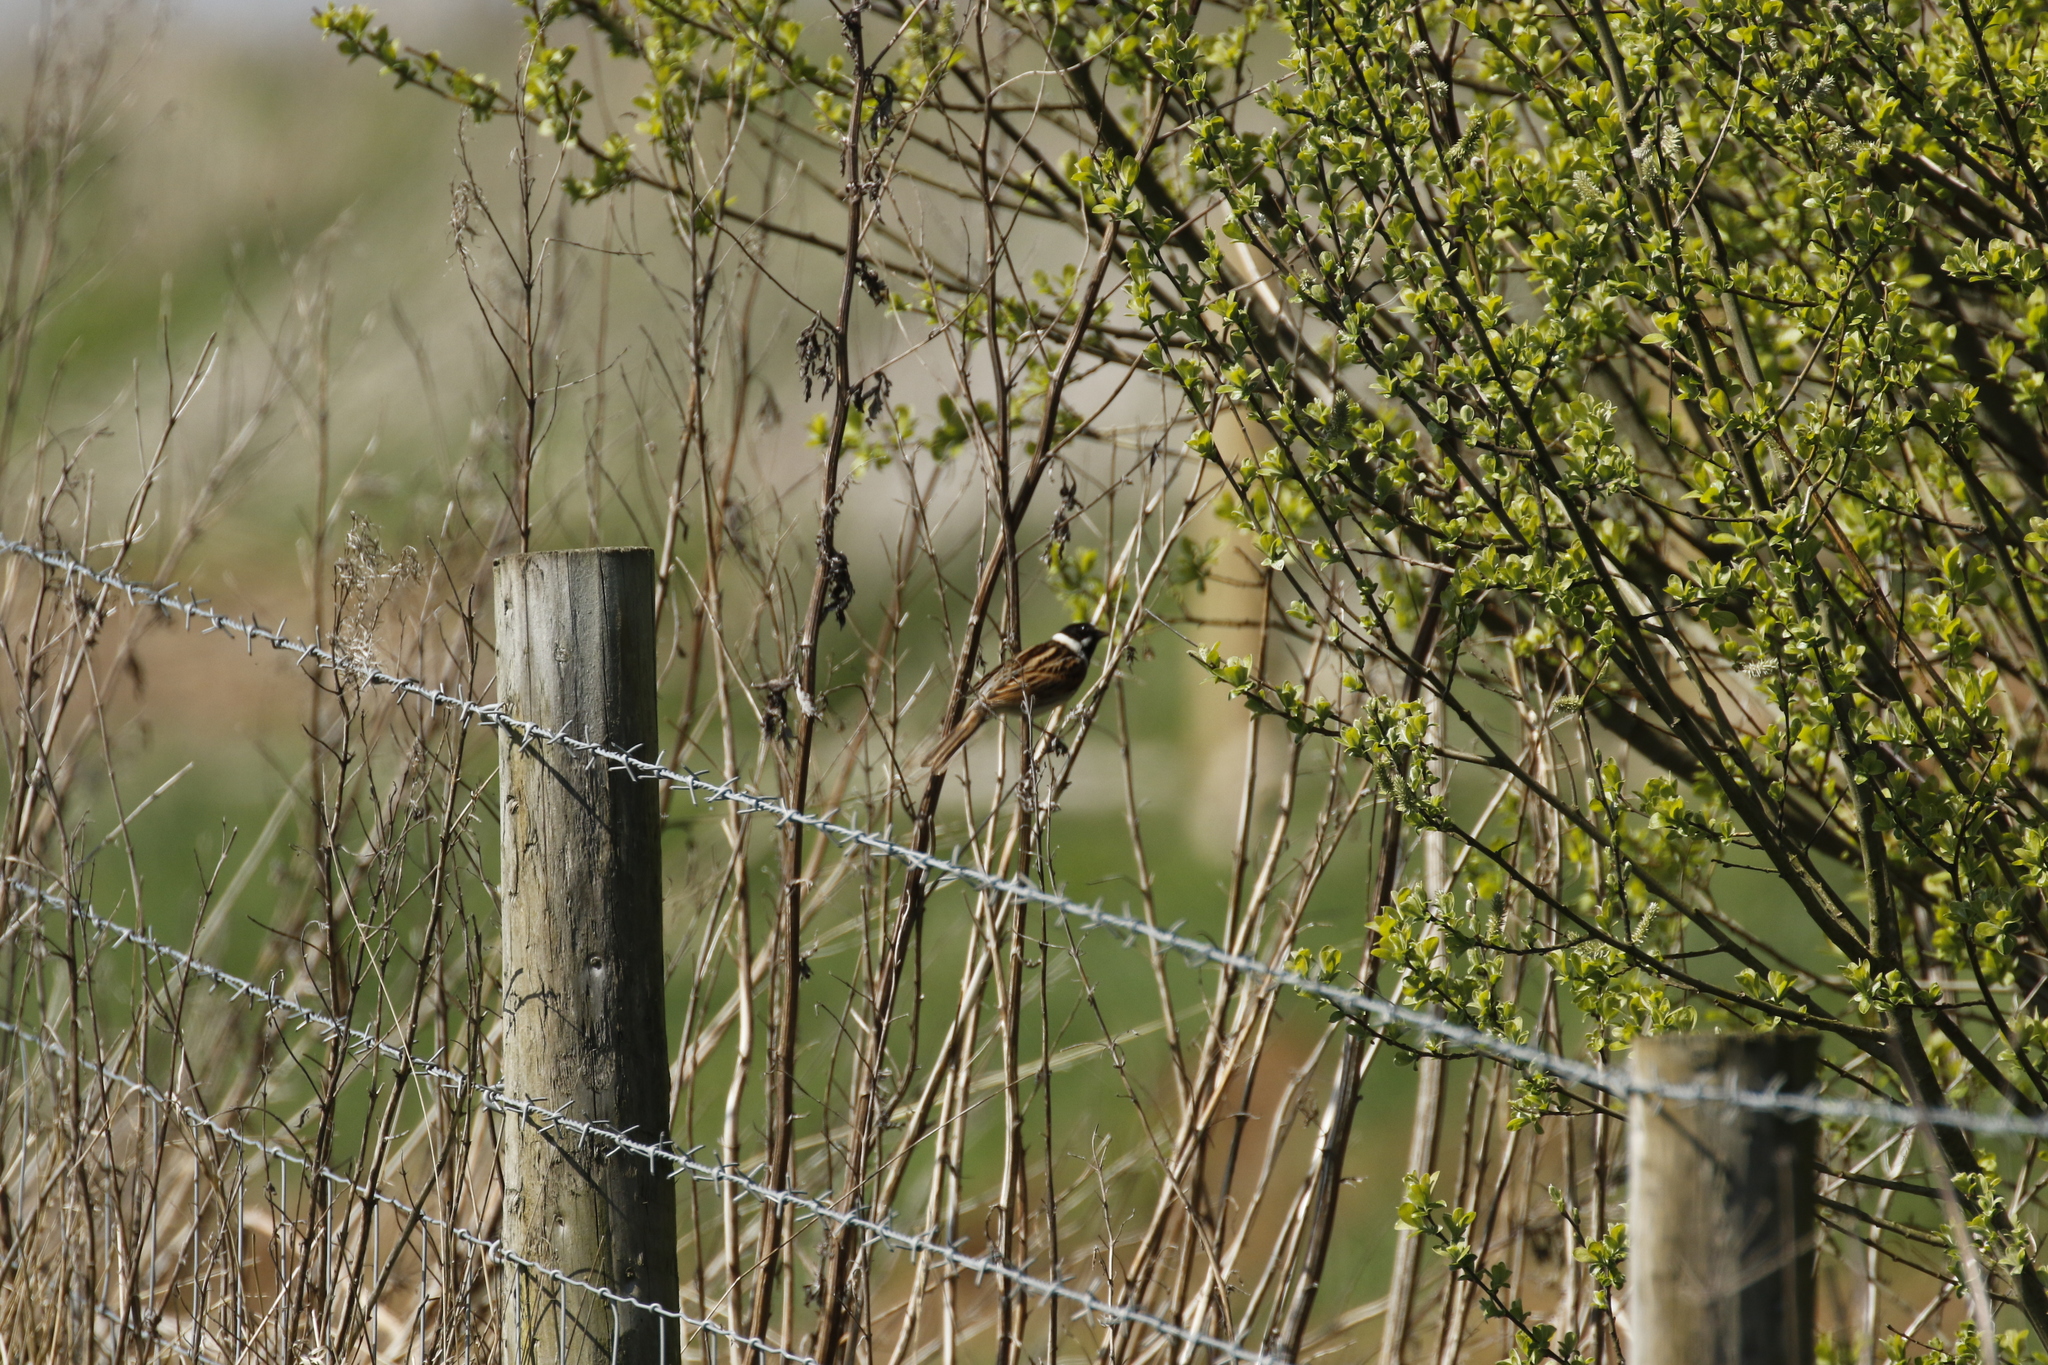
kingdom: Animalia
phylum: Chordata
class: Aves
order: Passeriformes
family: Emberizidae
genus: Emberiza
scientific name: Emberiza schoeniclus
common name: Reed bunting
